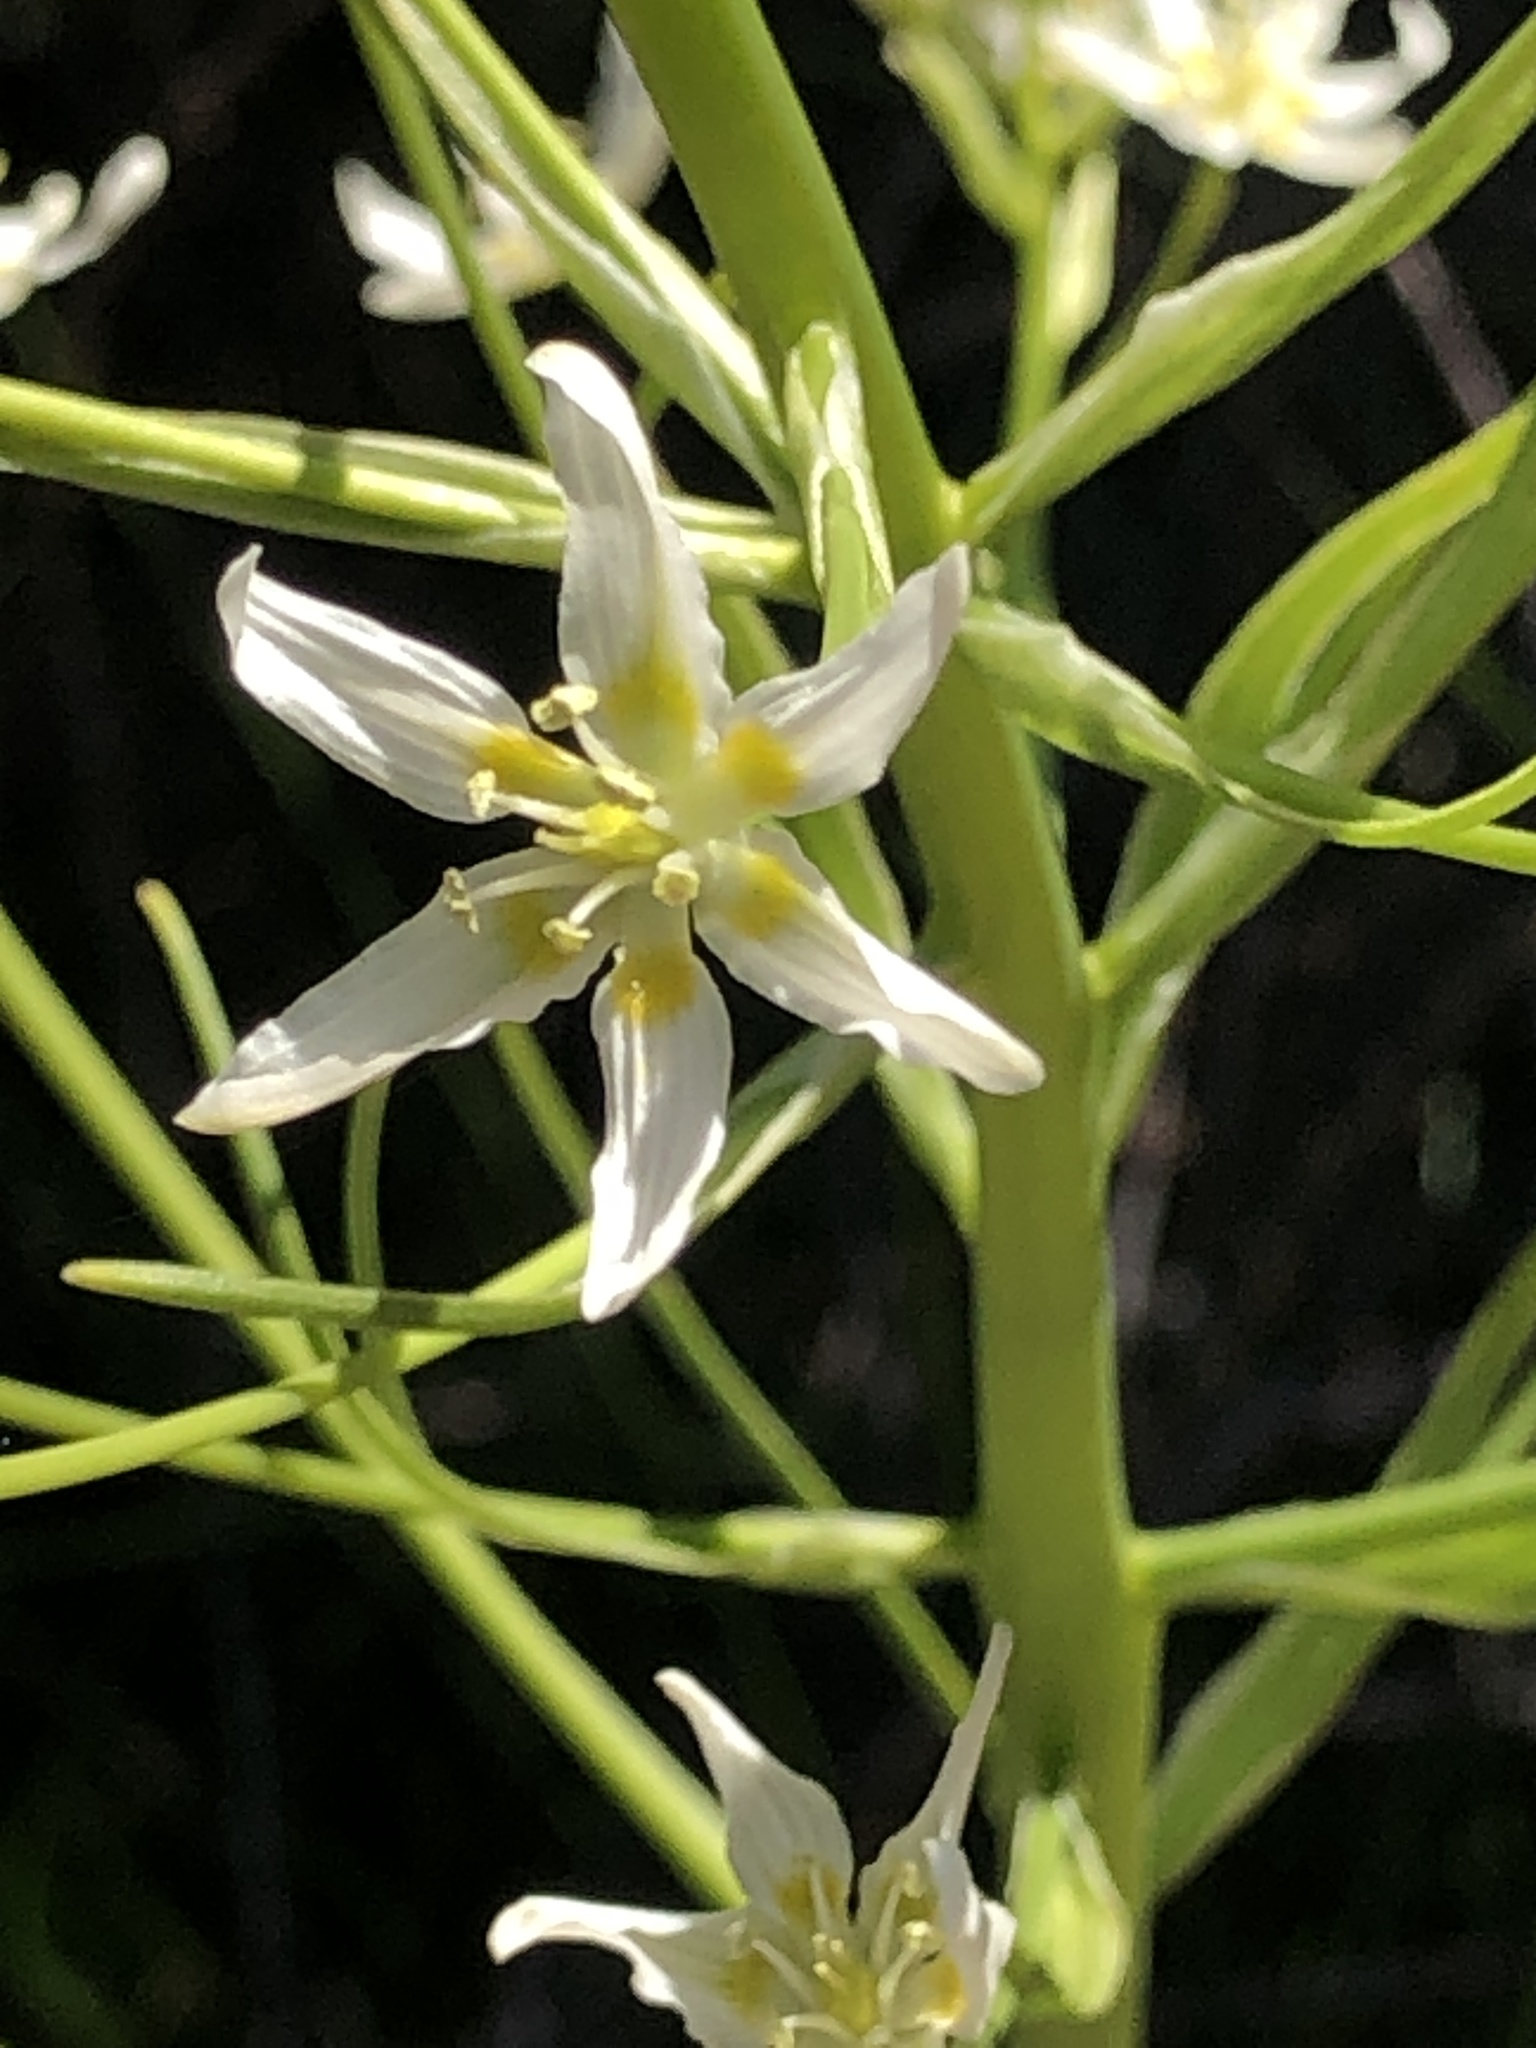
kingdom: Plantae
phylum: Tracheophyta
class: Liliopsida
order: Liliales
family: Melanthiaceae
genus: Toxicoscordion
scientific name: Toxicoscordion fremontii
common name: Fremont's death camas
